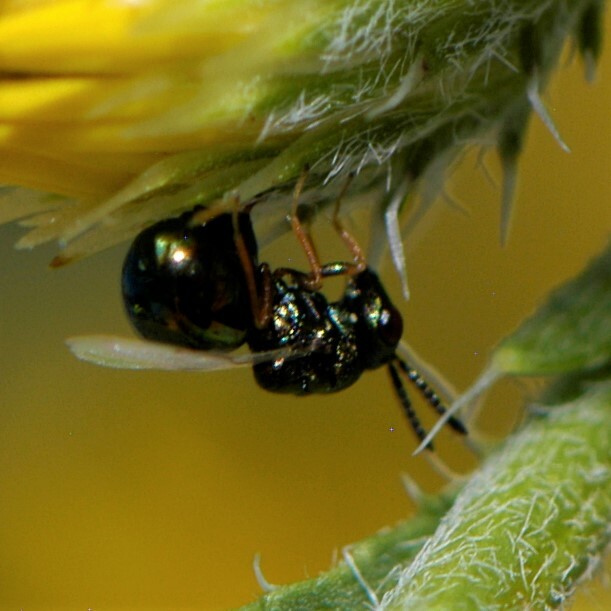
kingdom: Animalia
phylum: Arthropoda
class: Insecta
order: Hymenoptera
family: Eucharitidae
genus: Orasema
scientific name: Orasema
